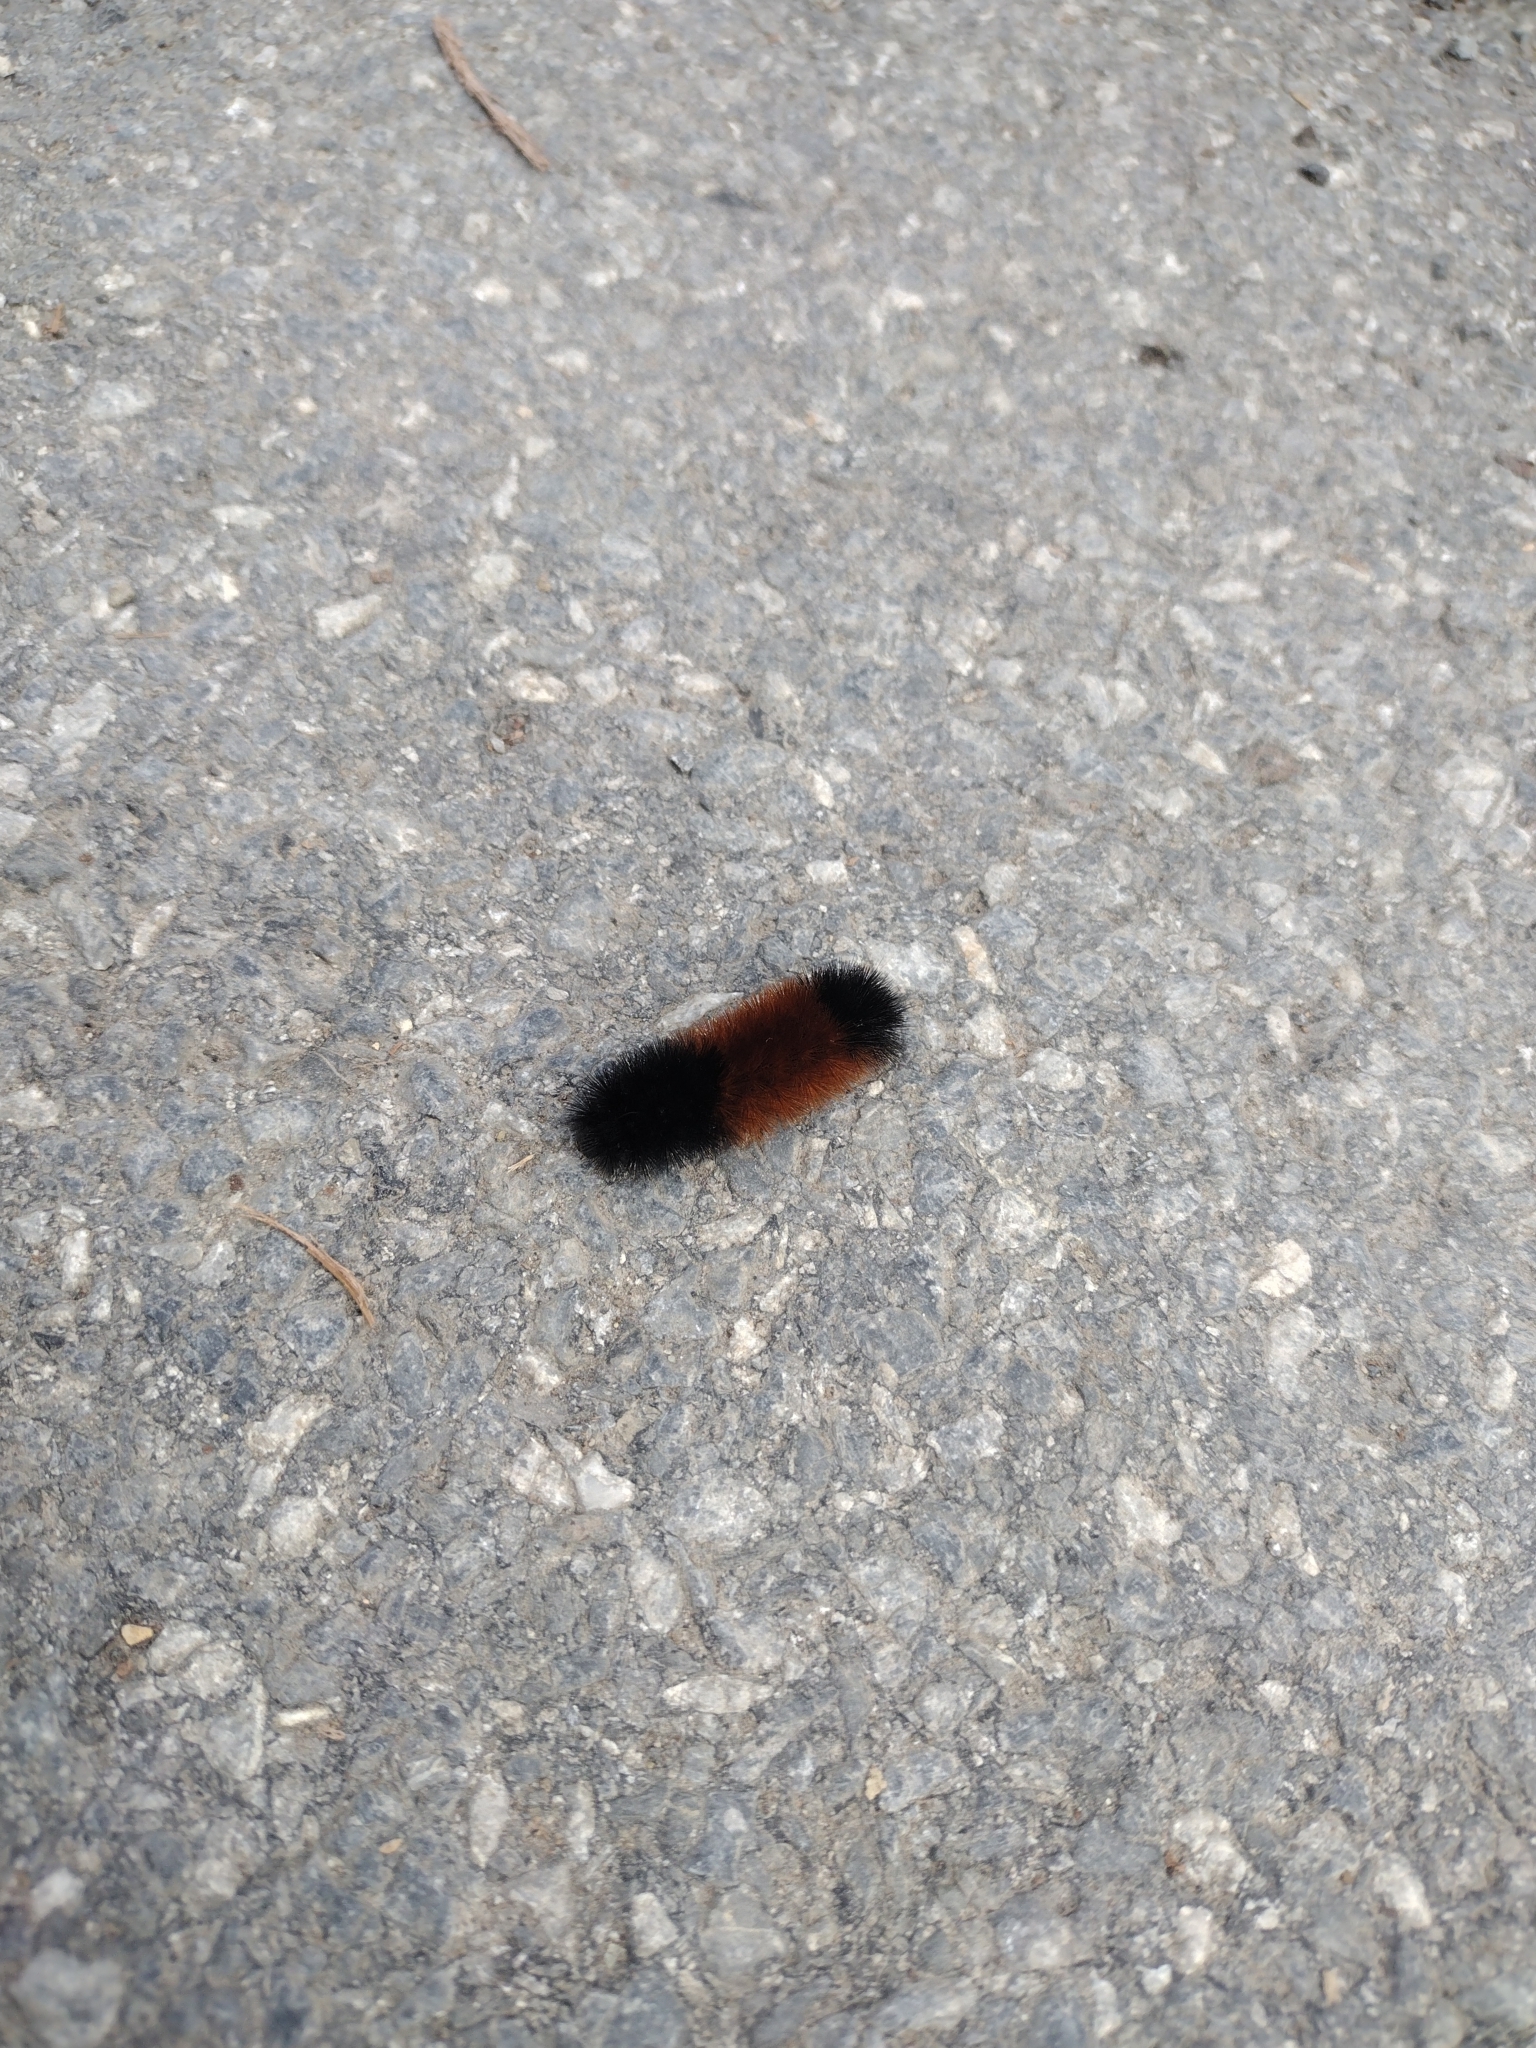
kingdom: Animalia
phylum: Arthropoda
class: Insecta
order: Lepidoptera
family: Erebidae
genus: Pyrrharctia
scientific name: Pyrrharctia isabella
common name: Isabella tiger moth
